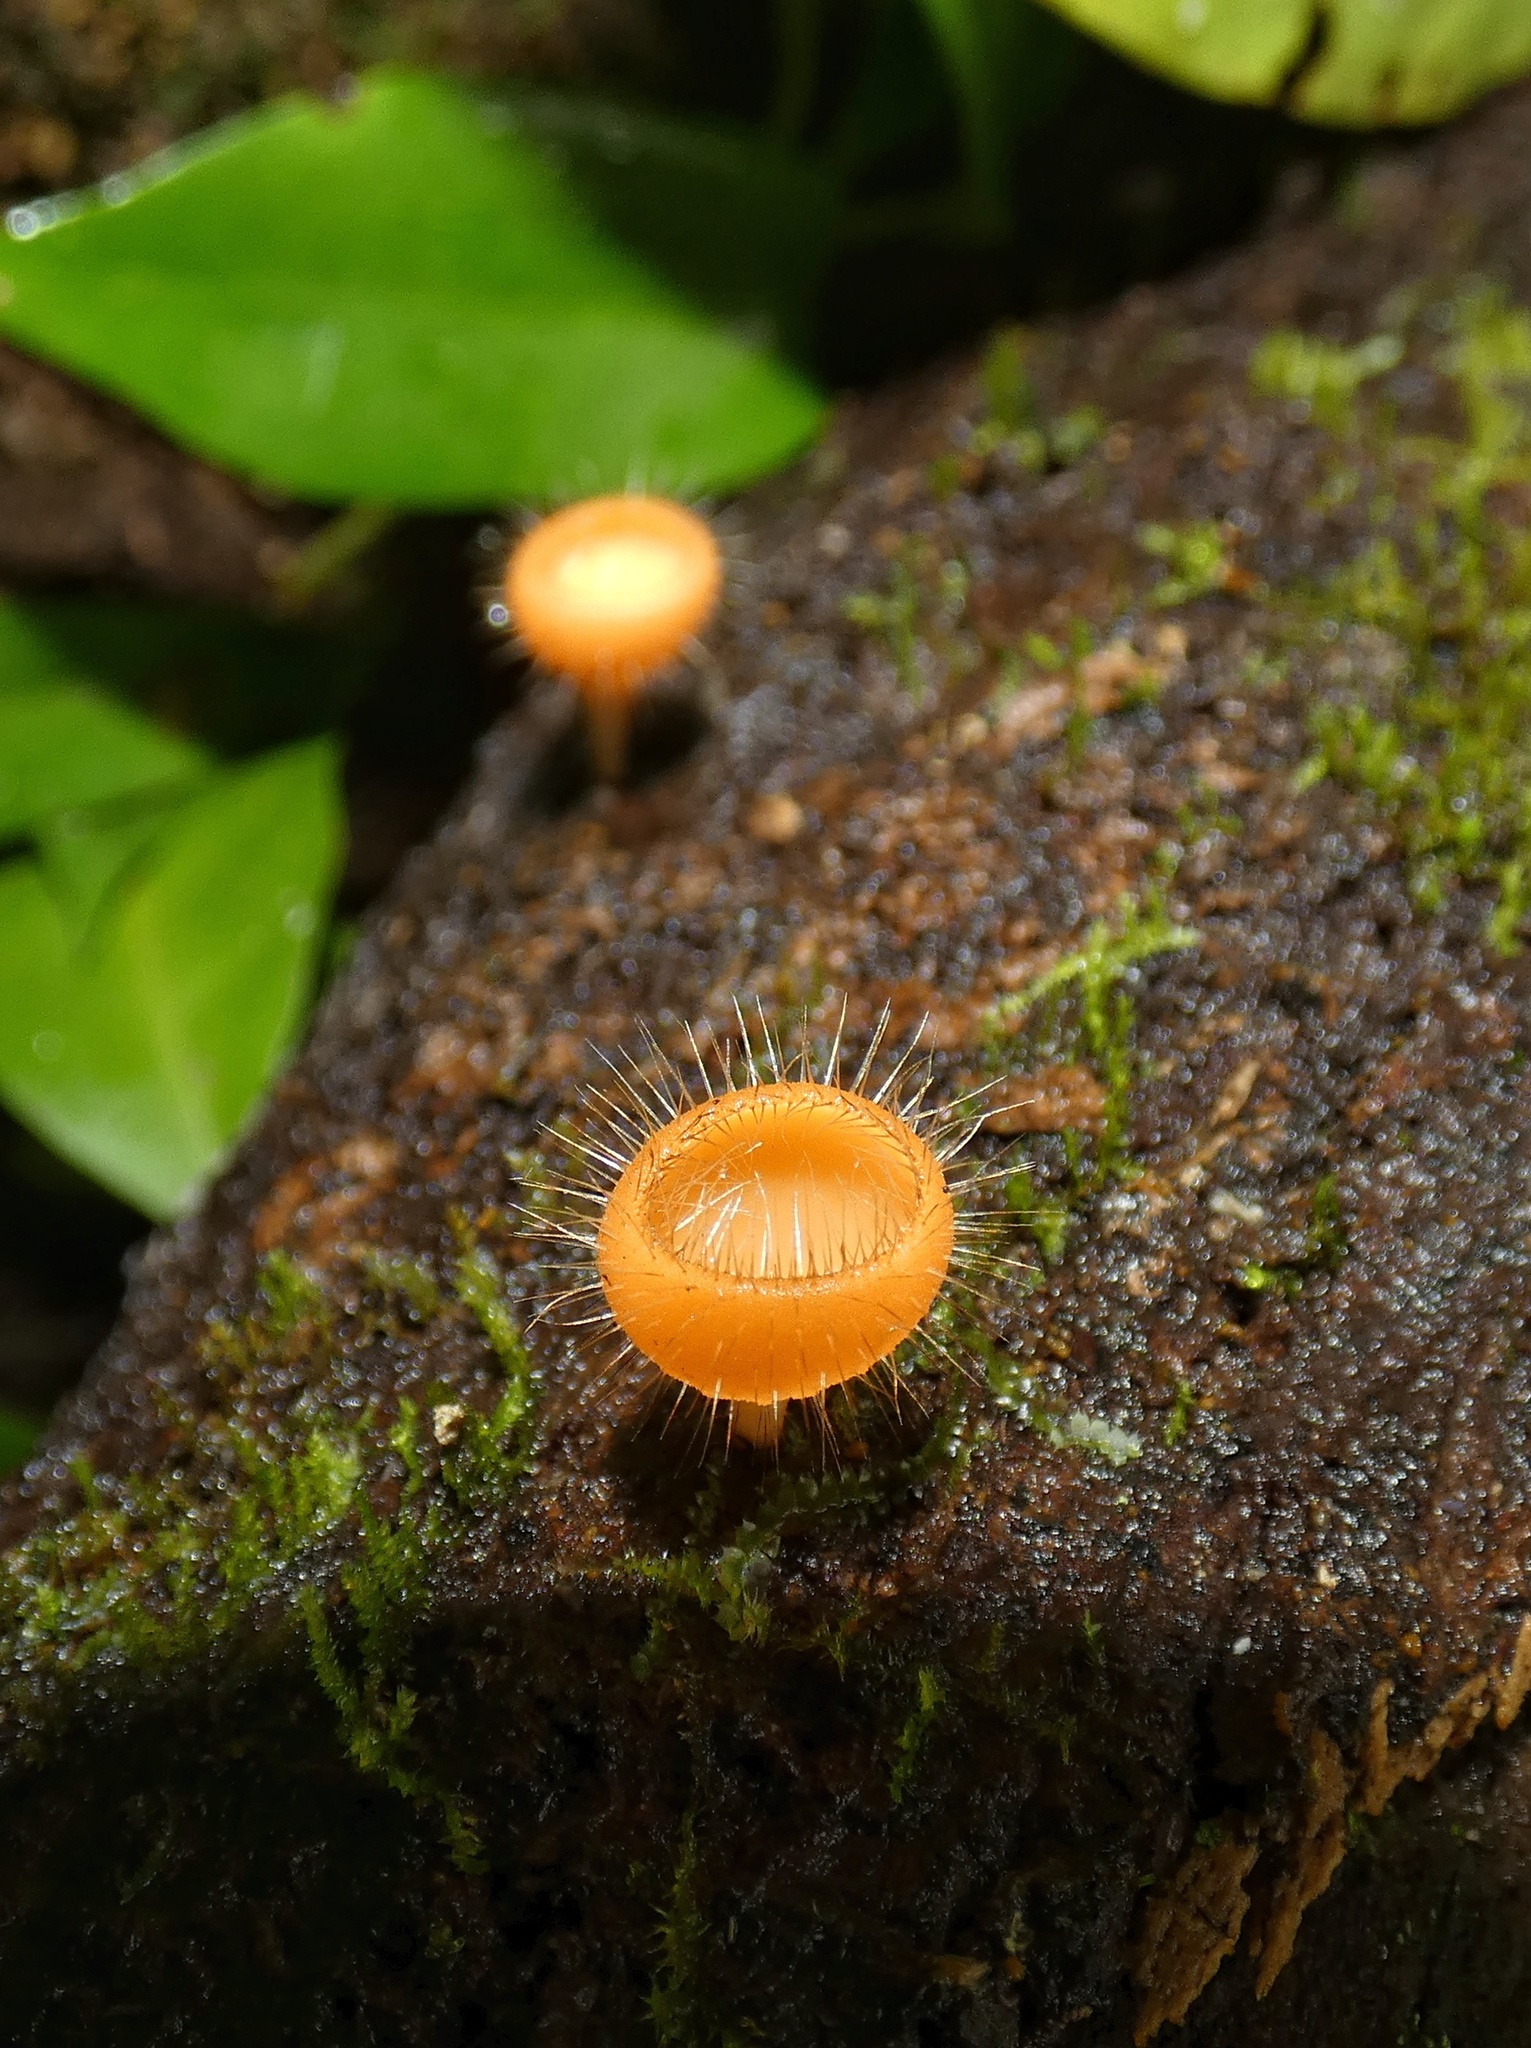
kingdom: Fungi
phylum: Ascomycota
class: Pezizomycetes
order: Pezizales
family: Sarcoscyphaceae
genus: Cookeina
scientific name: Cookeina tricholoma
